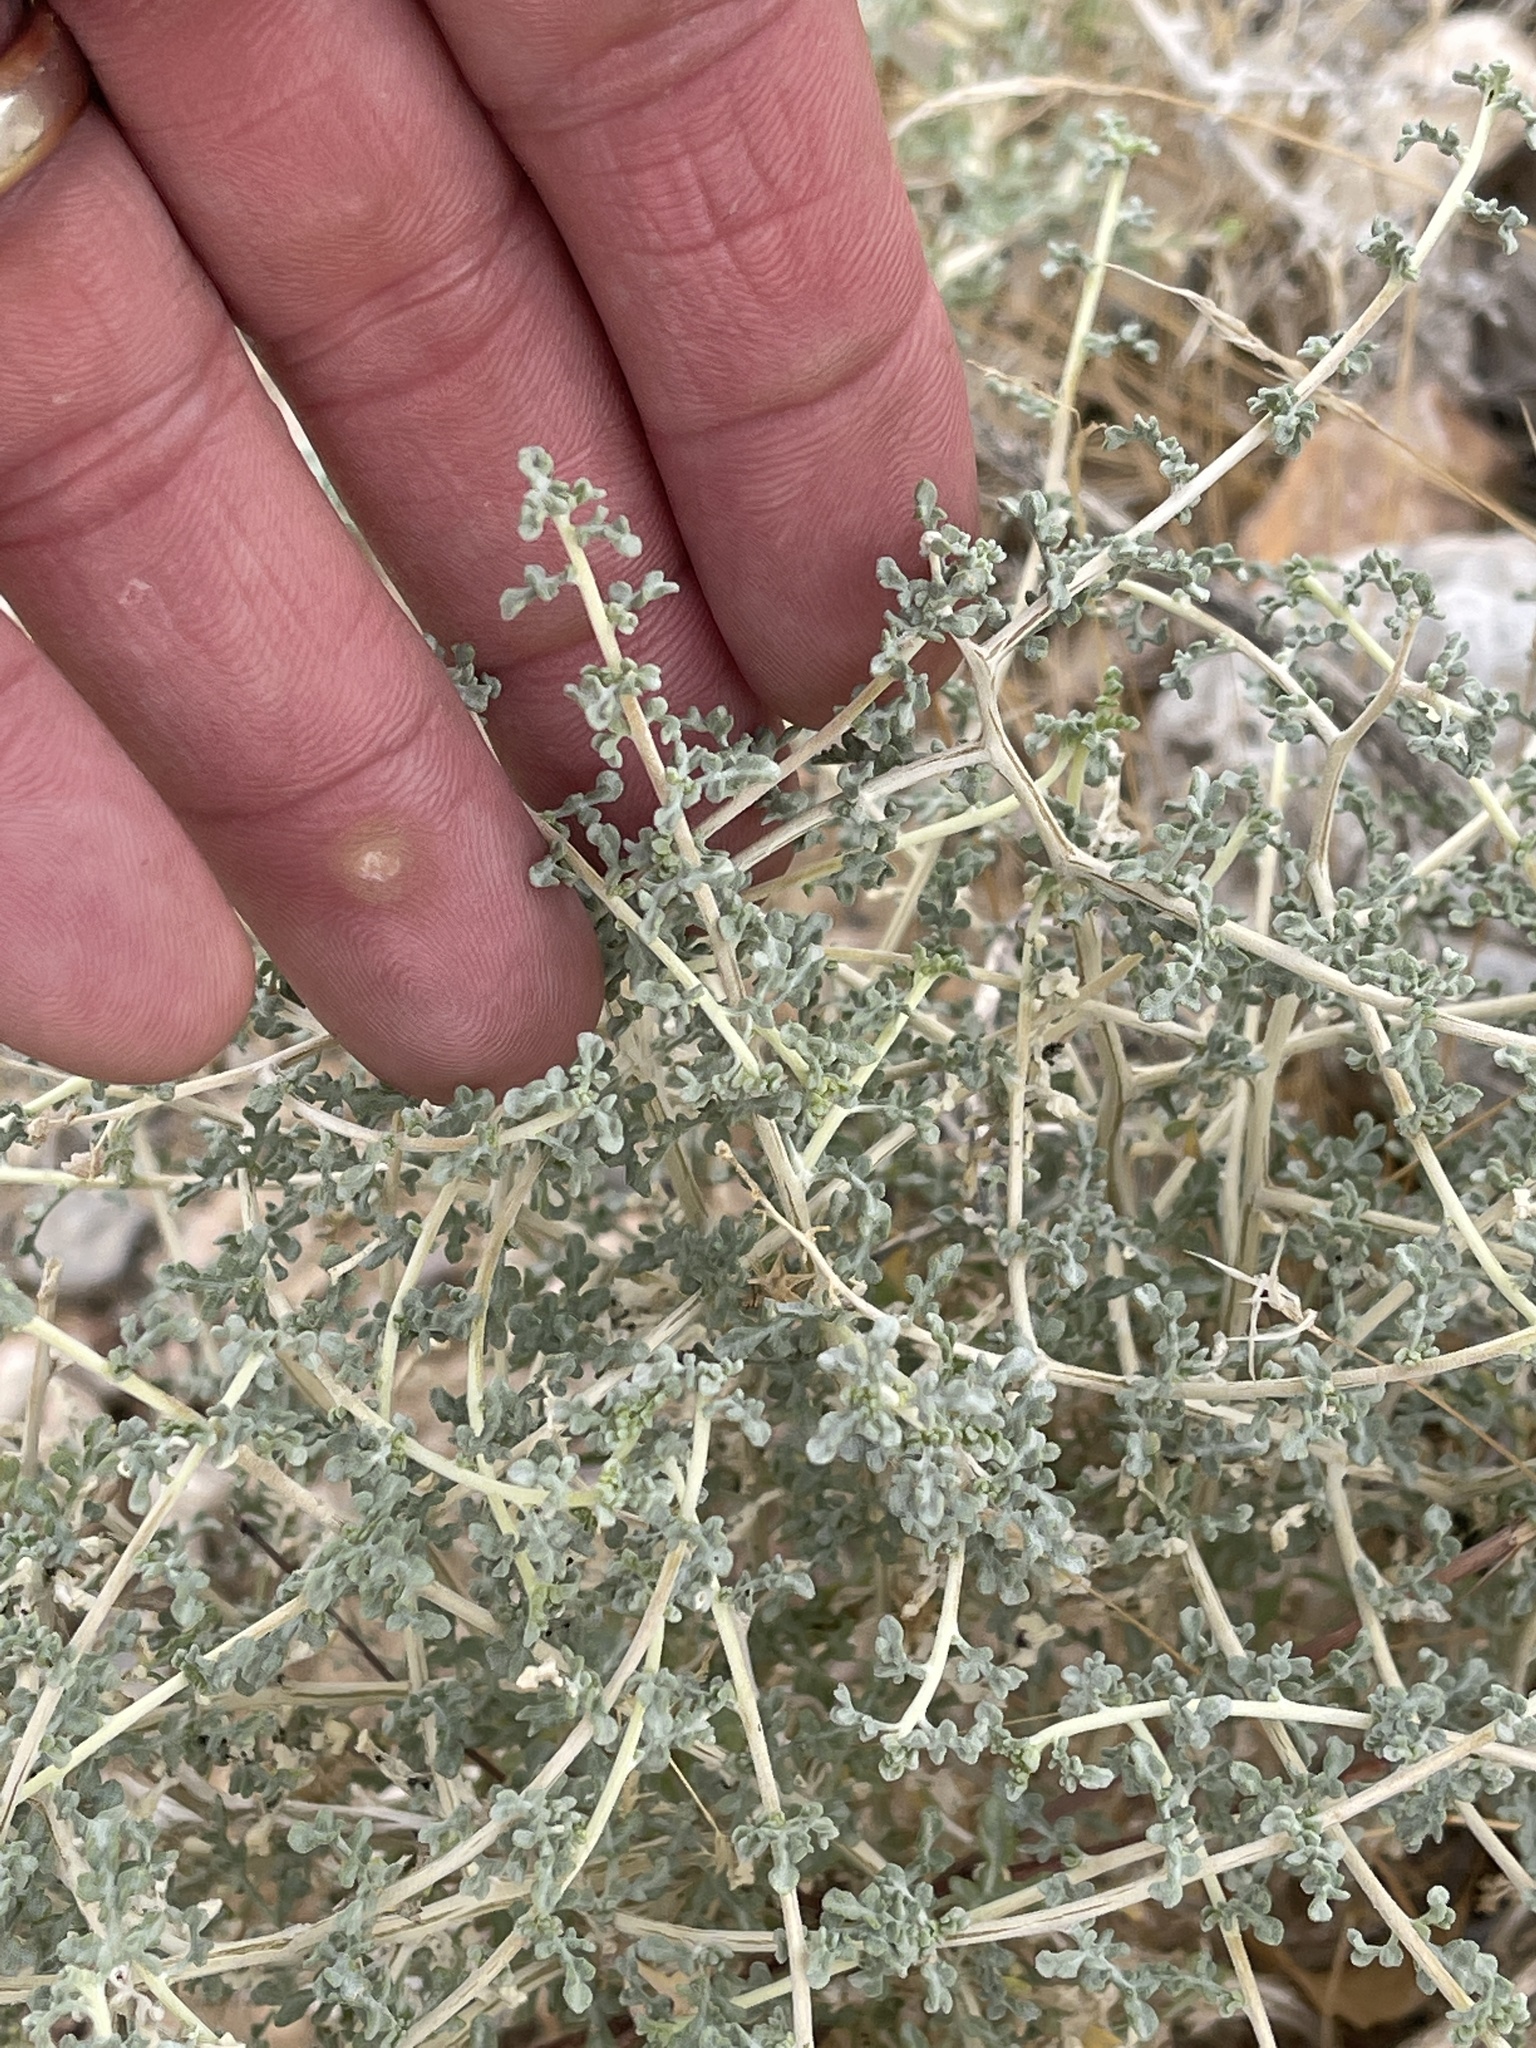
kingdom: Plantae
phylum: Tracheophyta
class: Magnoliopsida
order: Asterales
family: Asteraceae
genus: Ambrosia
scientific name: Ambrosia dumosa
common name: Bur-sage
